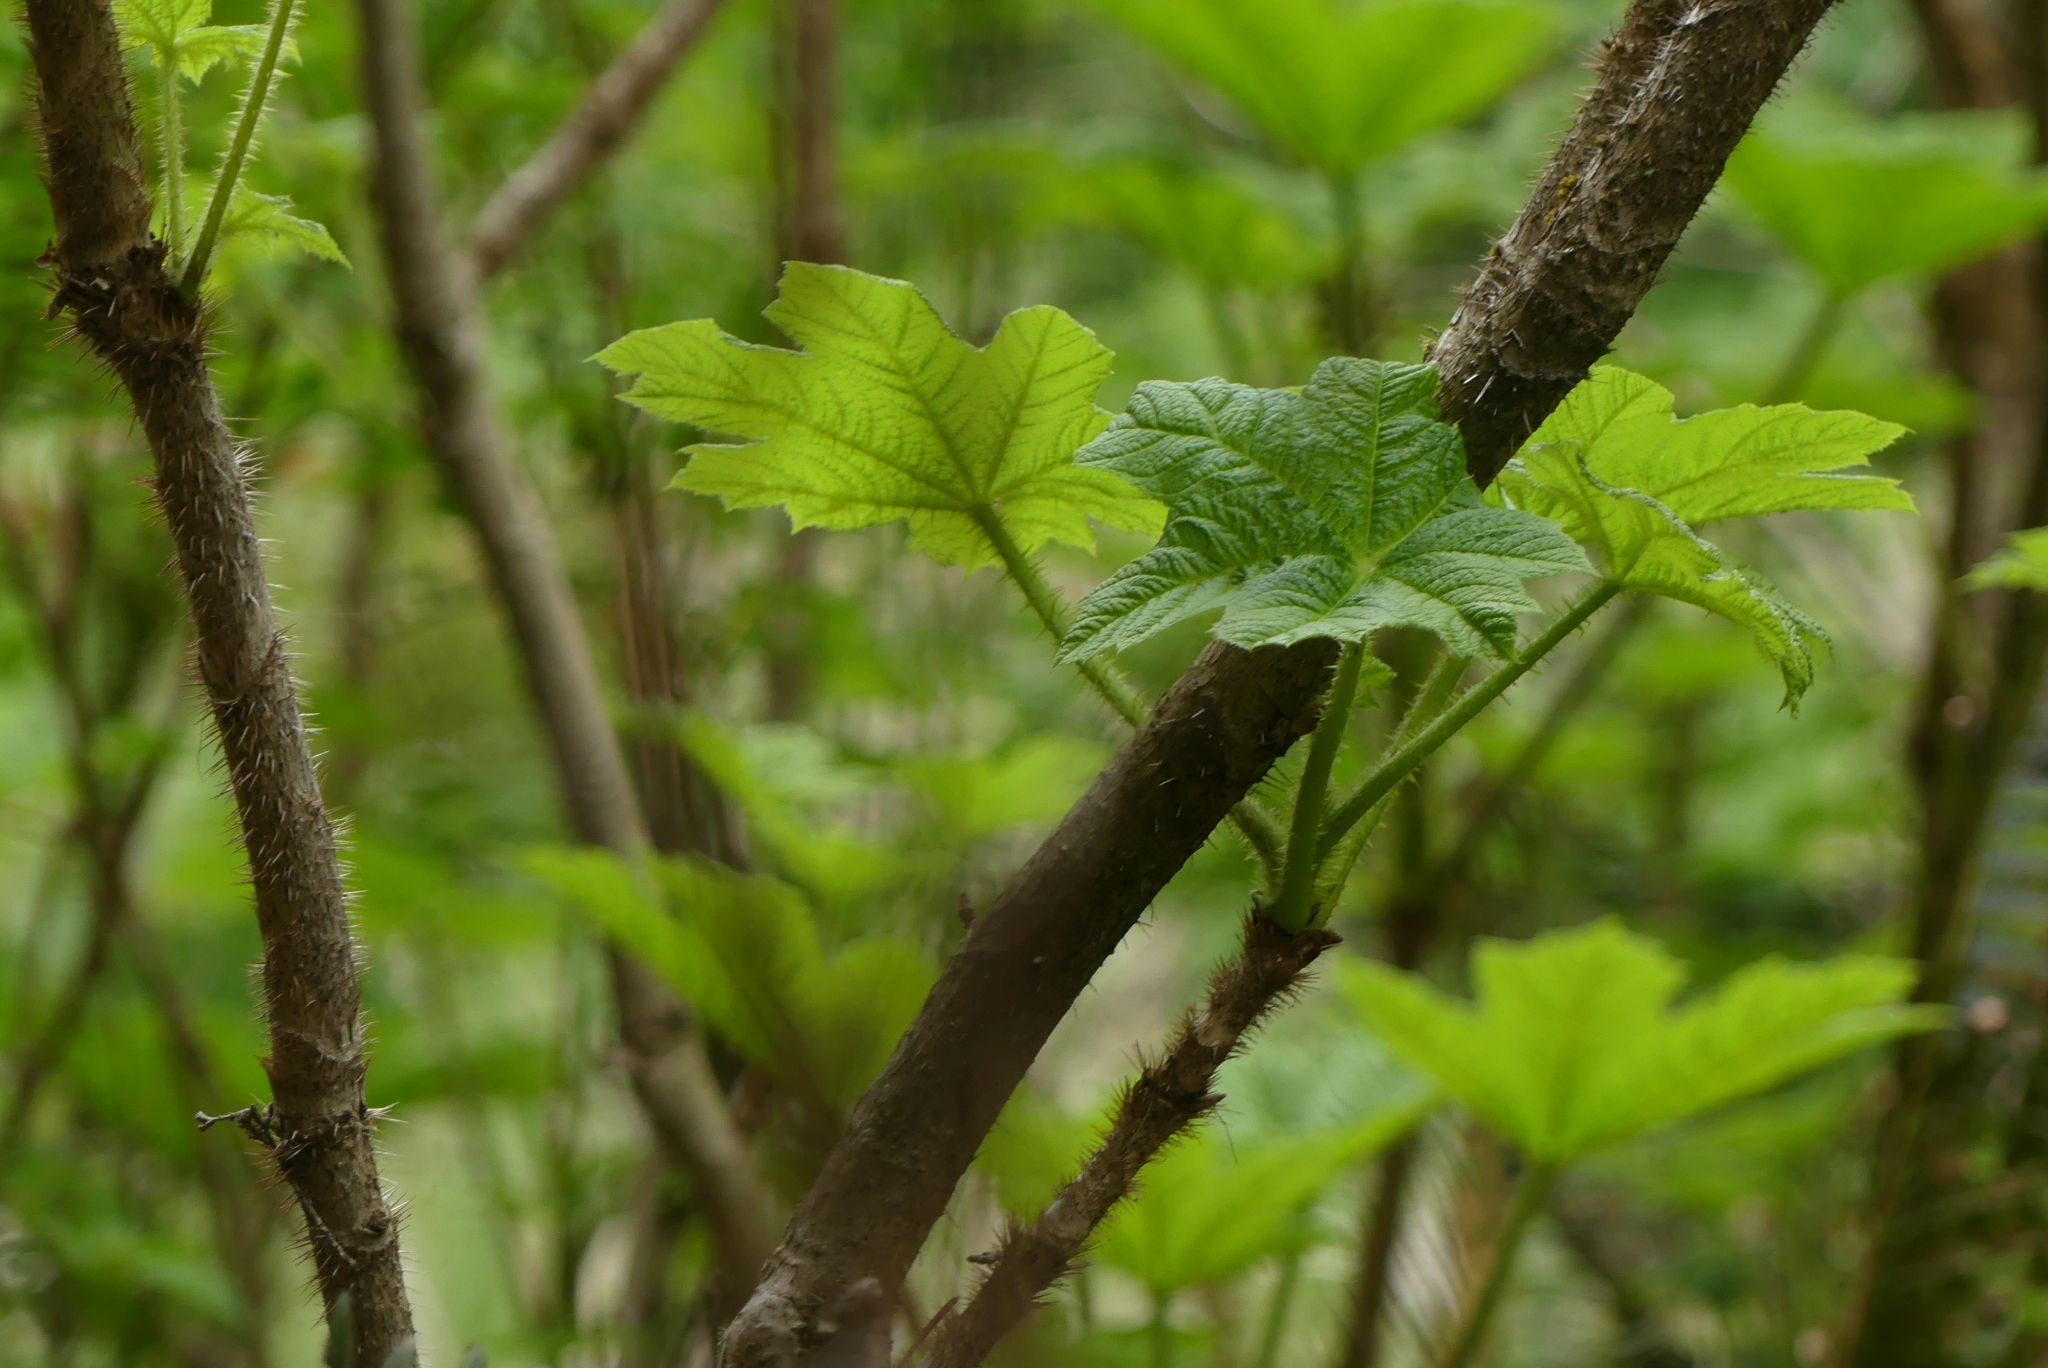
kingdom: Plantae
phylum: Tracheophyta
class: Magnoliopsida
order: Apiales
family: Araliaceae
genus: Oplopanax
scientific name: Oplopanax horridus
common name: Devil's walking-stick
